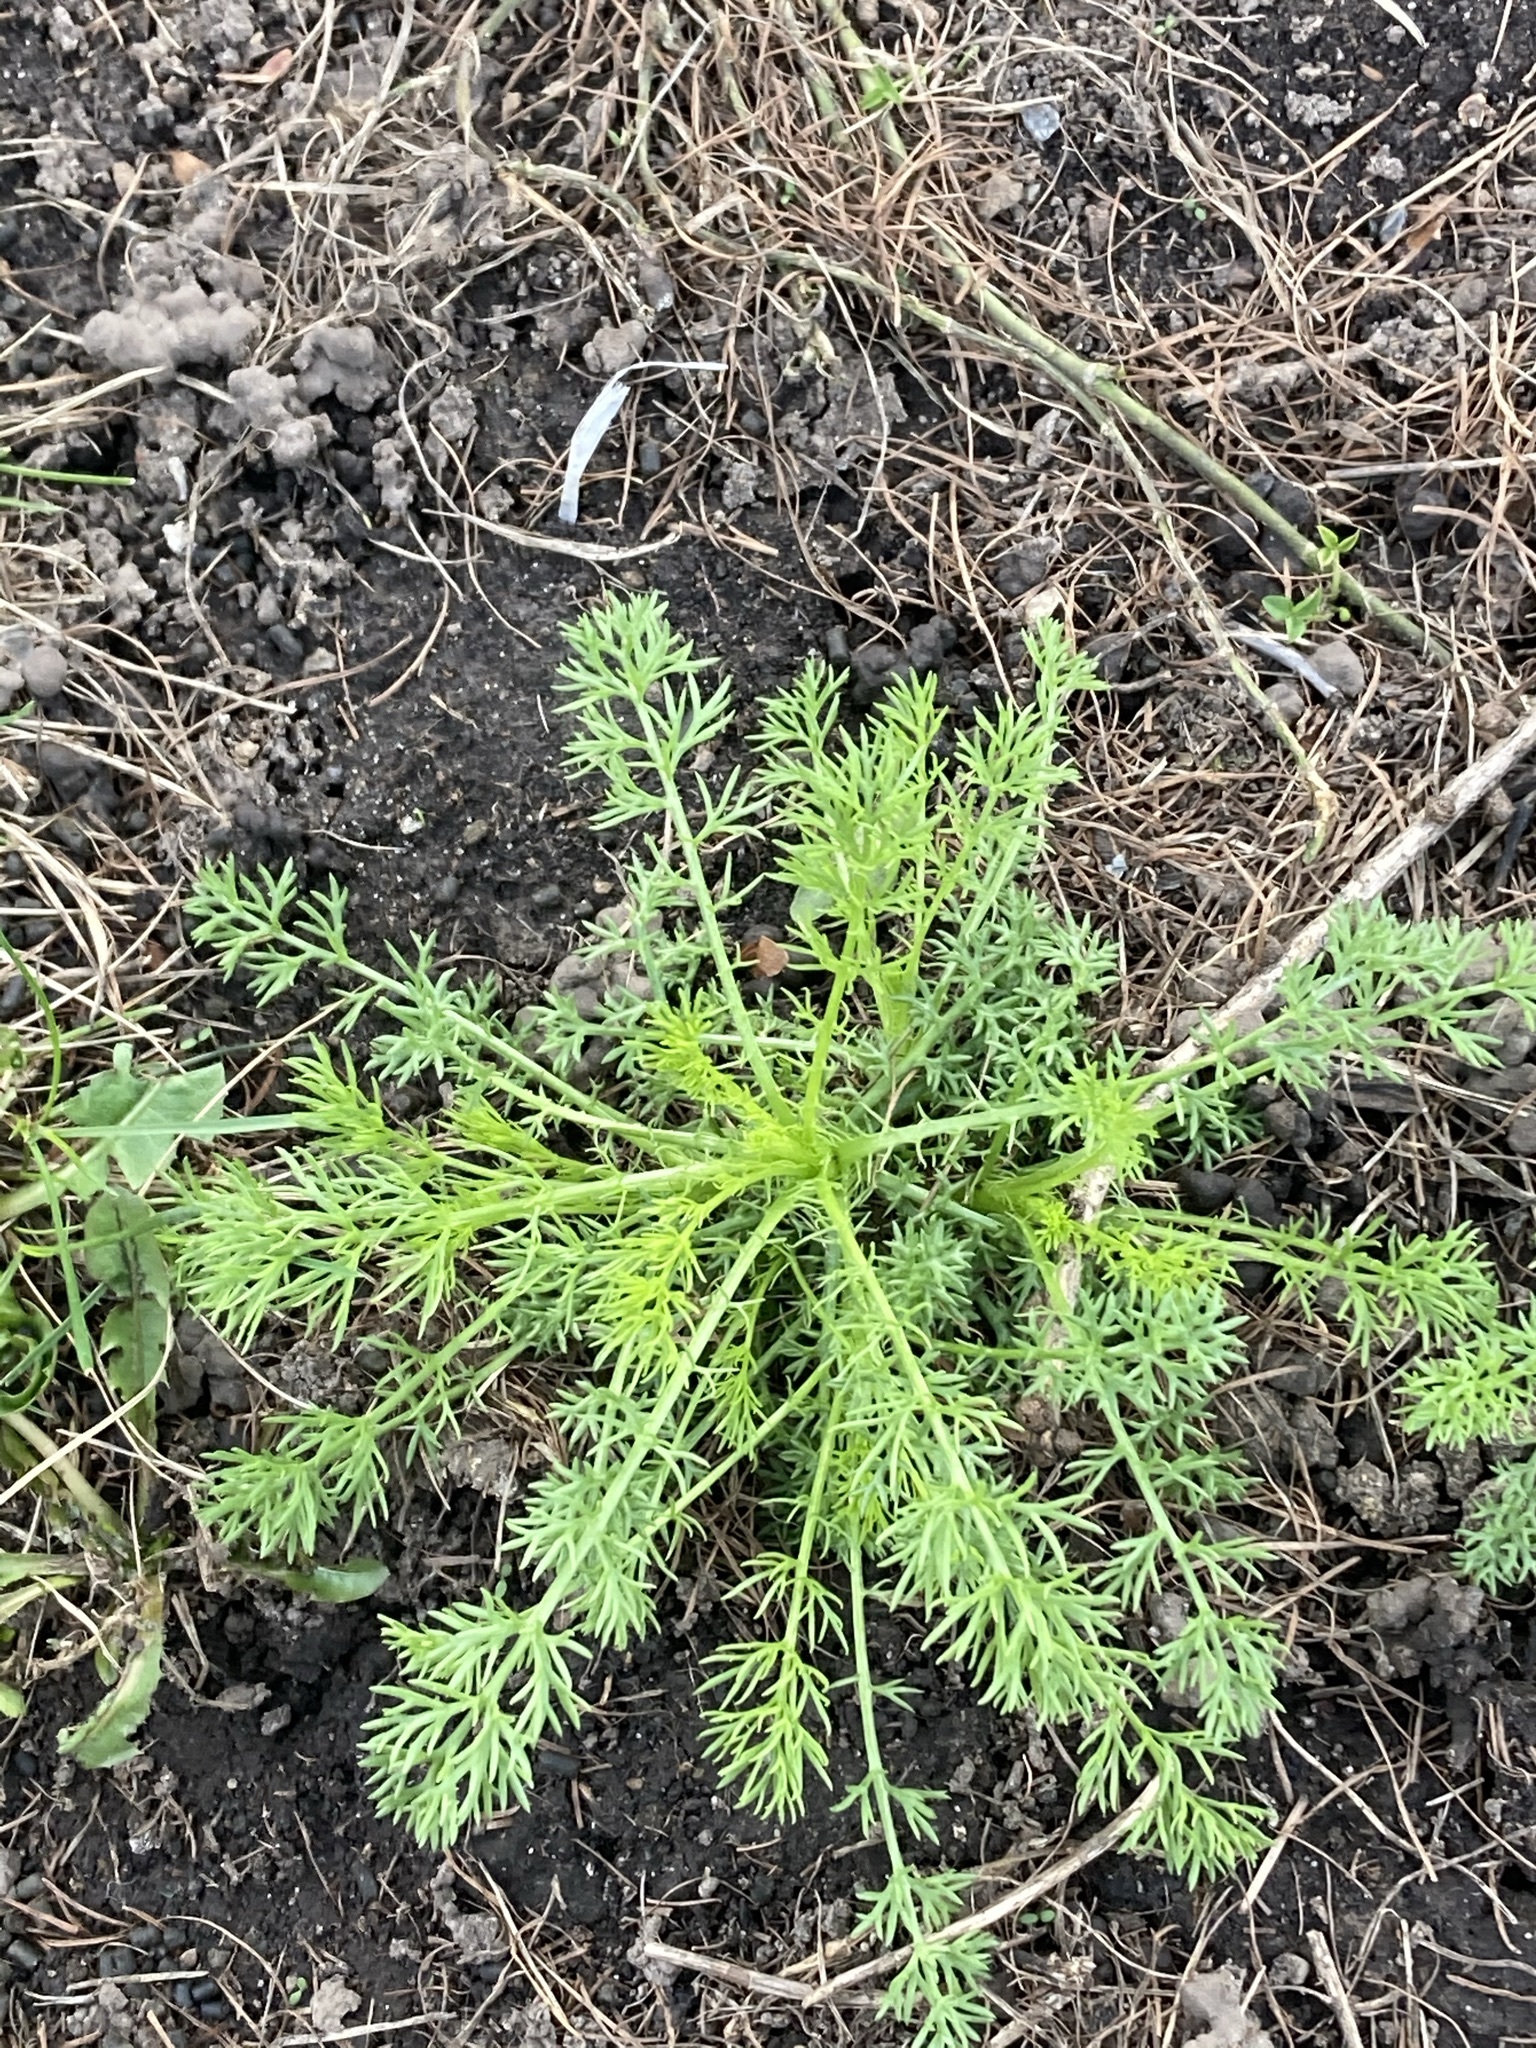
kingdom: Plantae
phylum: Tracheophyta
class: Magnoliopsida
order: Asterales
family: Asteraceae
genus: Tripleurospermum
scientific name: Tripleurospermum inodorum
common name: Scentless mayweed
